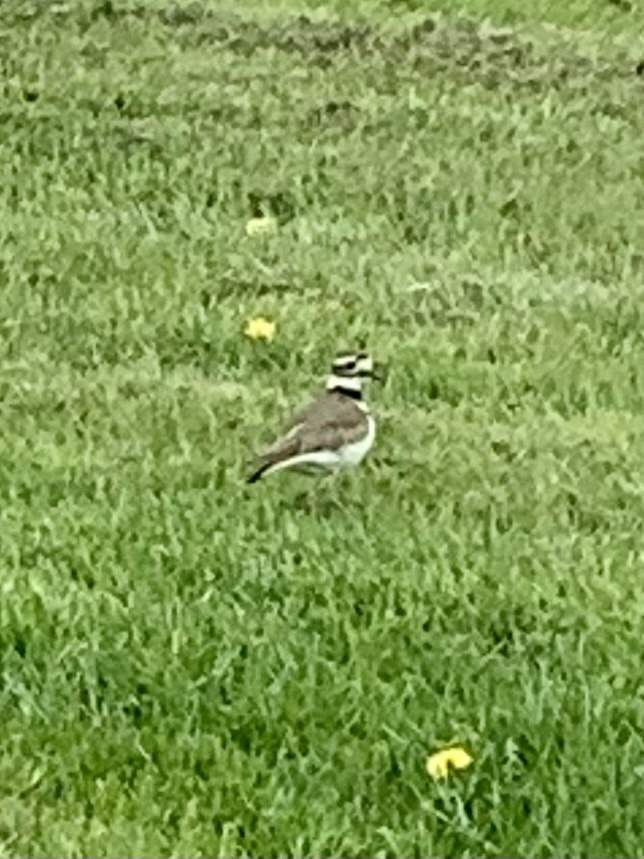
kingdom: Animalia
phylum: Chordata
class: Aves
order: Charadriiformes
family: Charadriidae
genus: Charadrius
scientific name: Charadrius vociferus
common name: Killdeer
